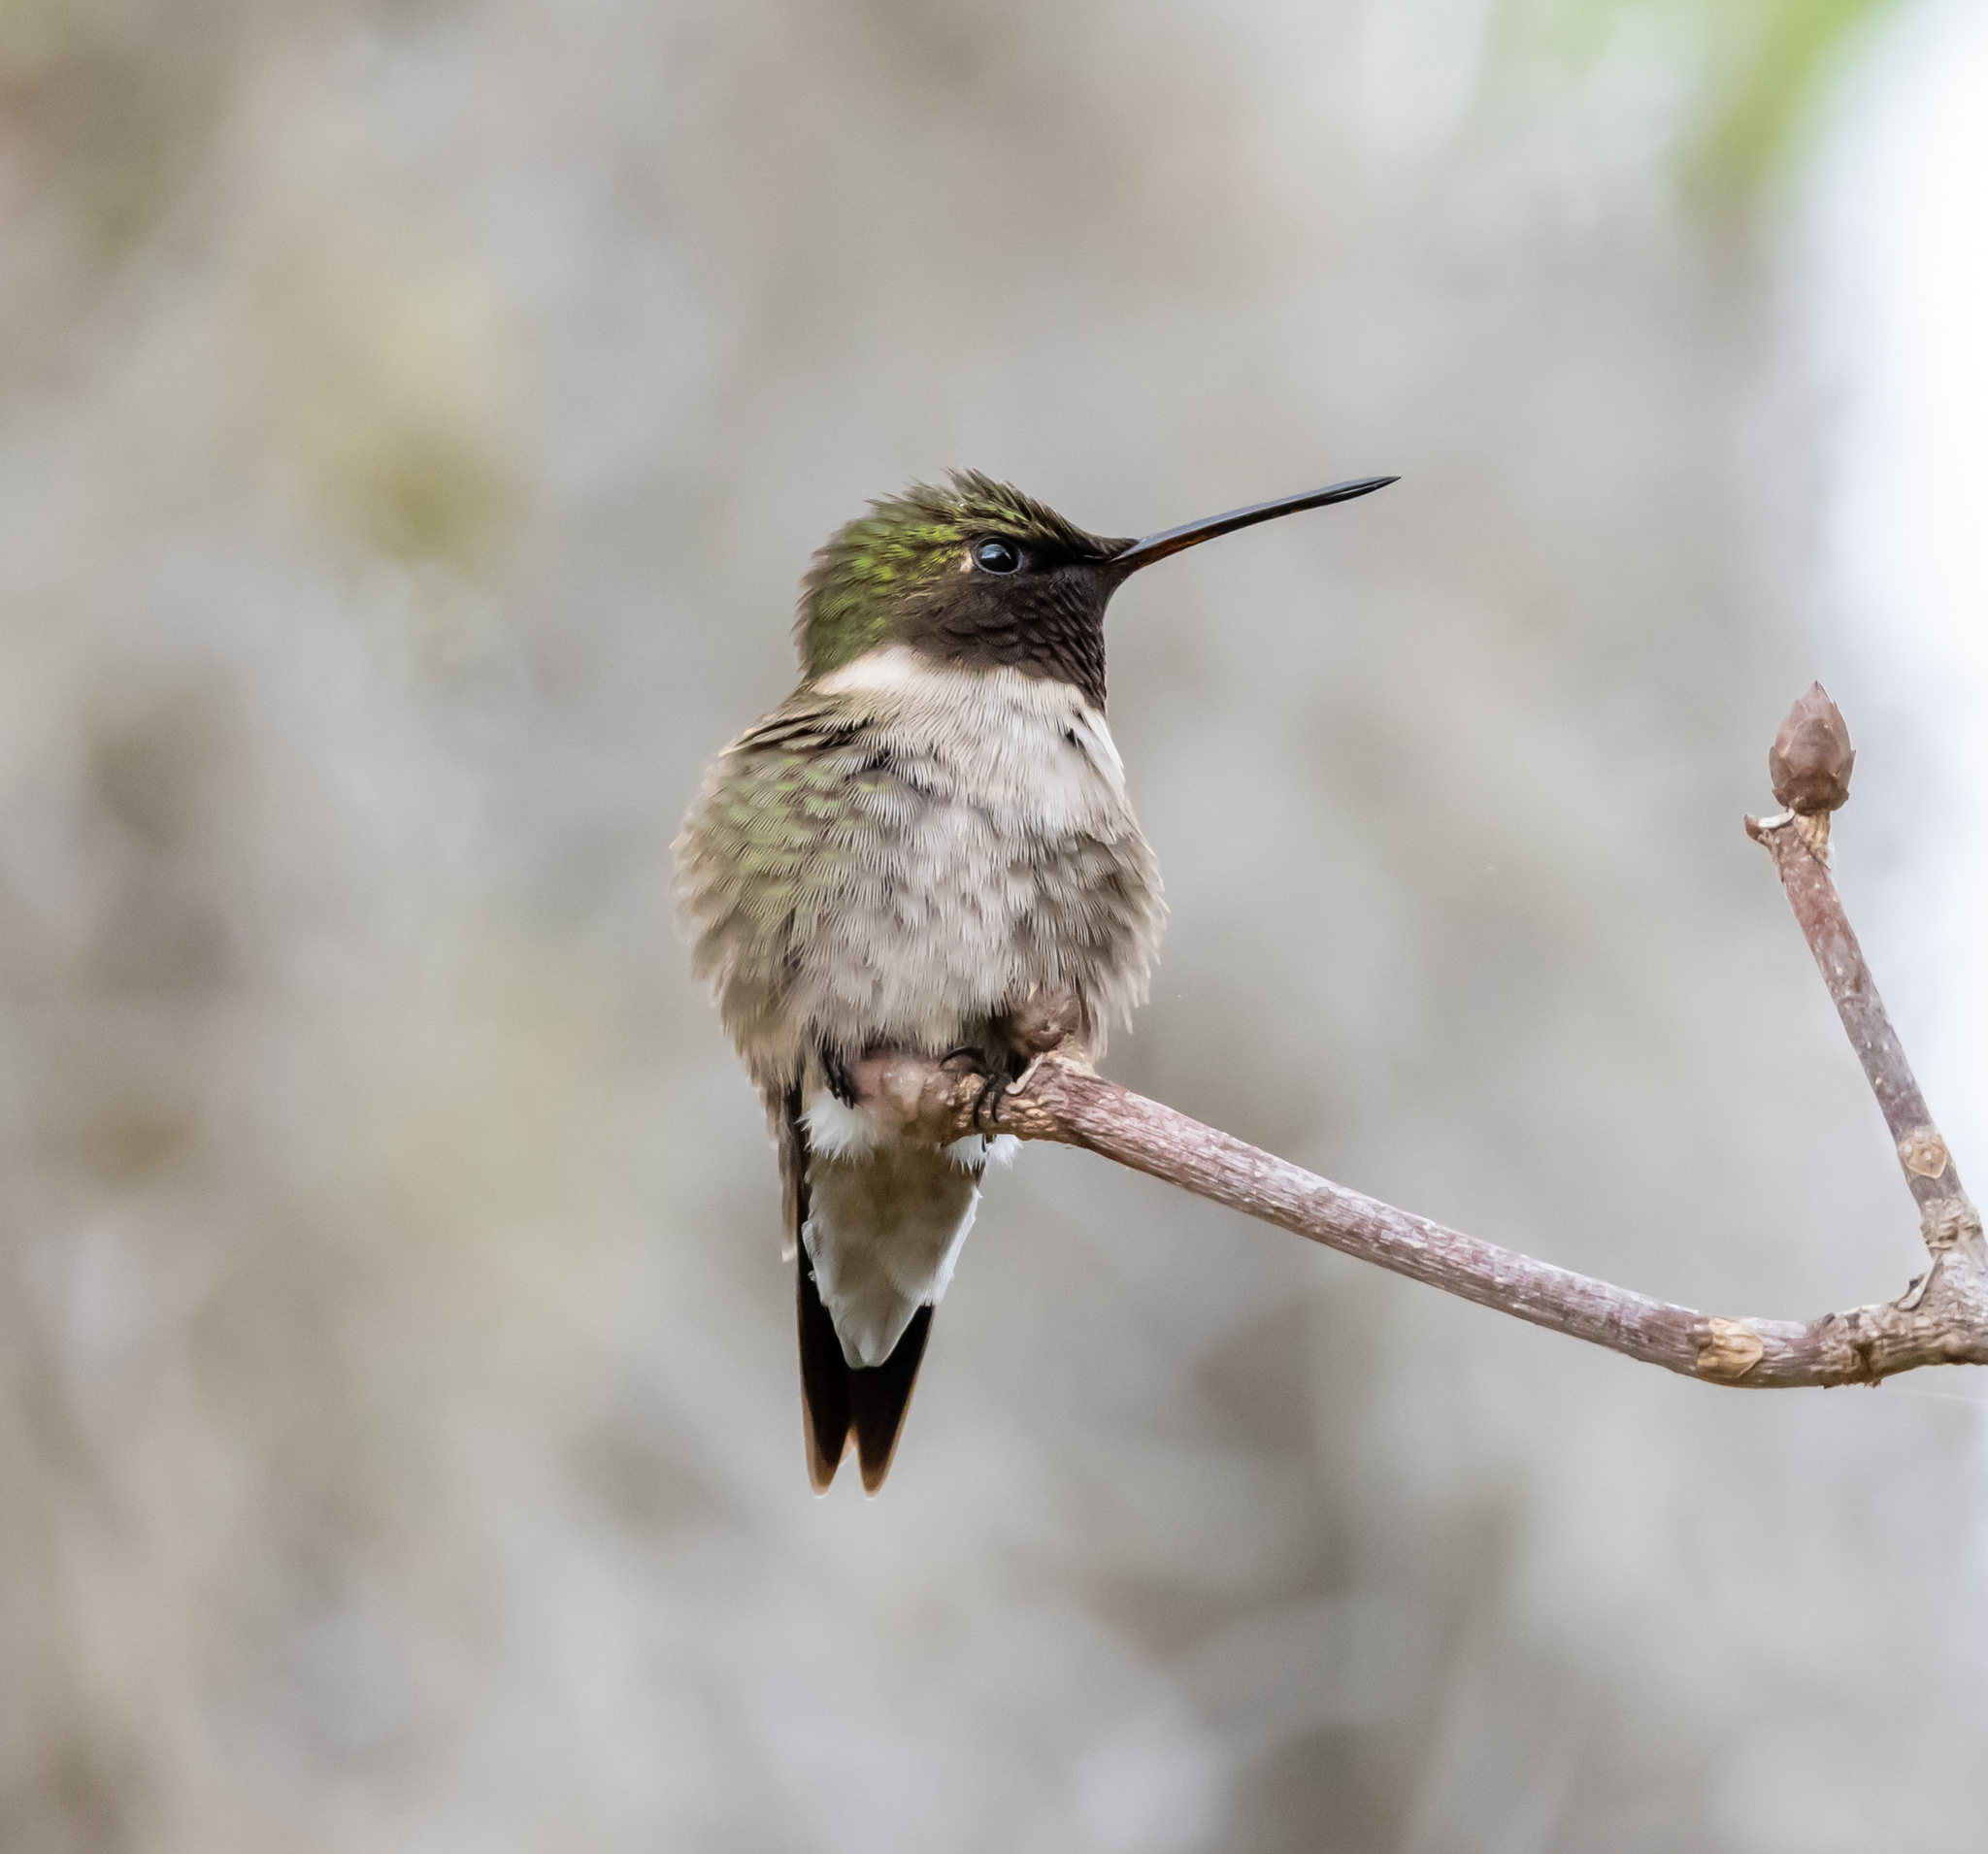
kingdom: Animalia
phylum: Chordata
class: Aves
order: Apodiformes
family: Trochilidae
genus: Archilochus
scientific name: Archilochus colubris
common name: Ruby-throated hummingbird
